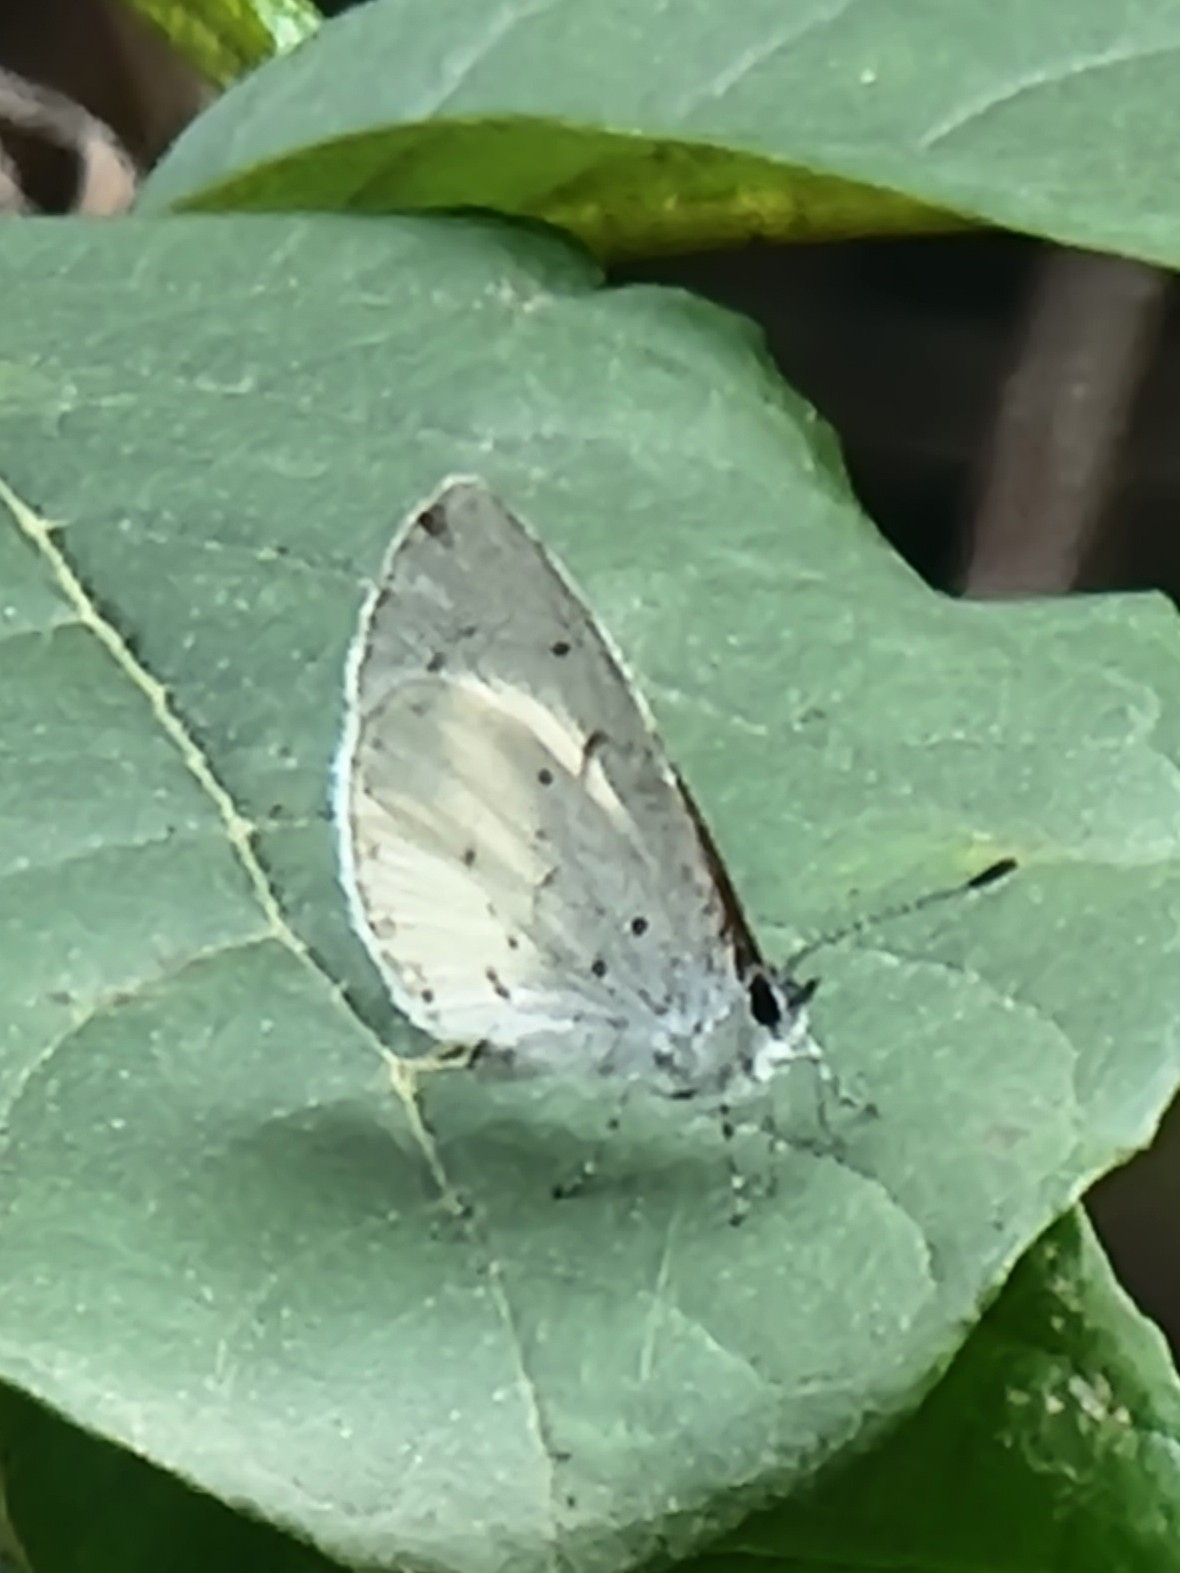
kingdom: Animalia
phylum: Arthropoda
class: Insecta
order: Lepidoptera
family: Lycaenidae
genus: Udara
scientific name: Udara akasa
